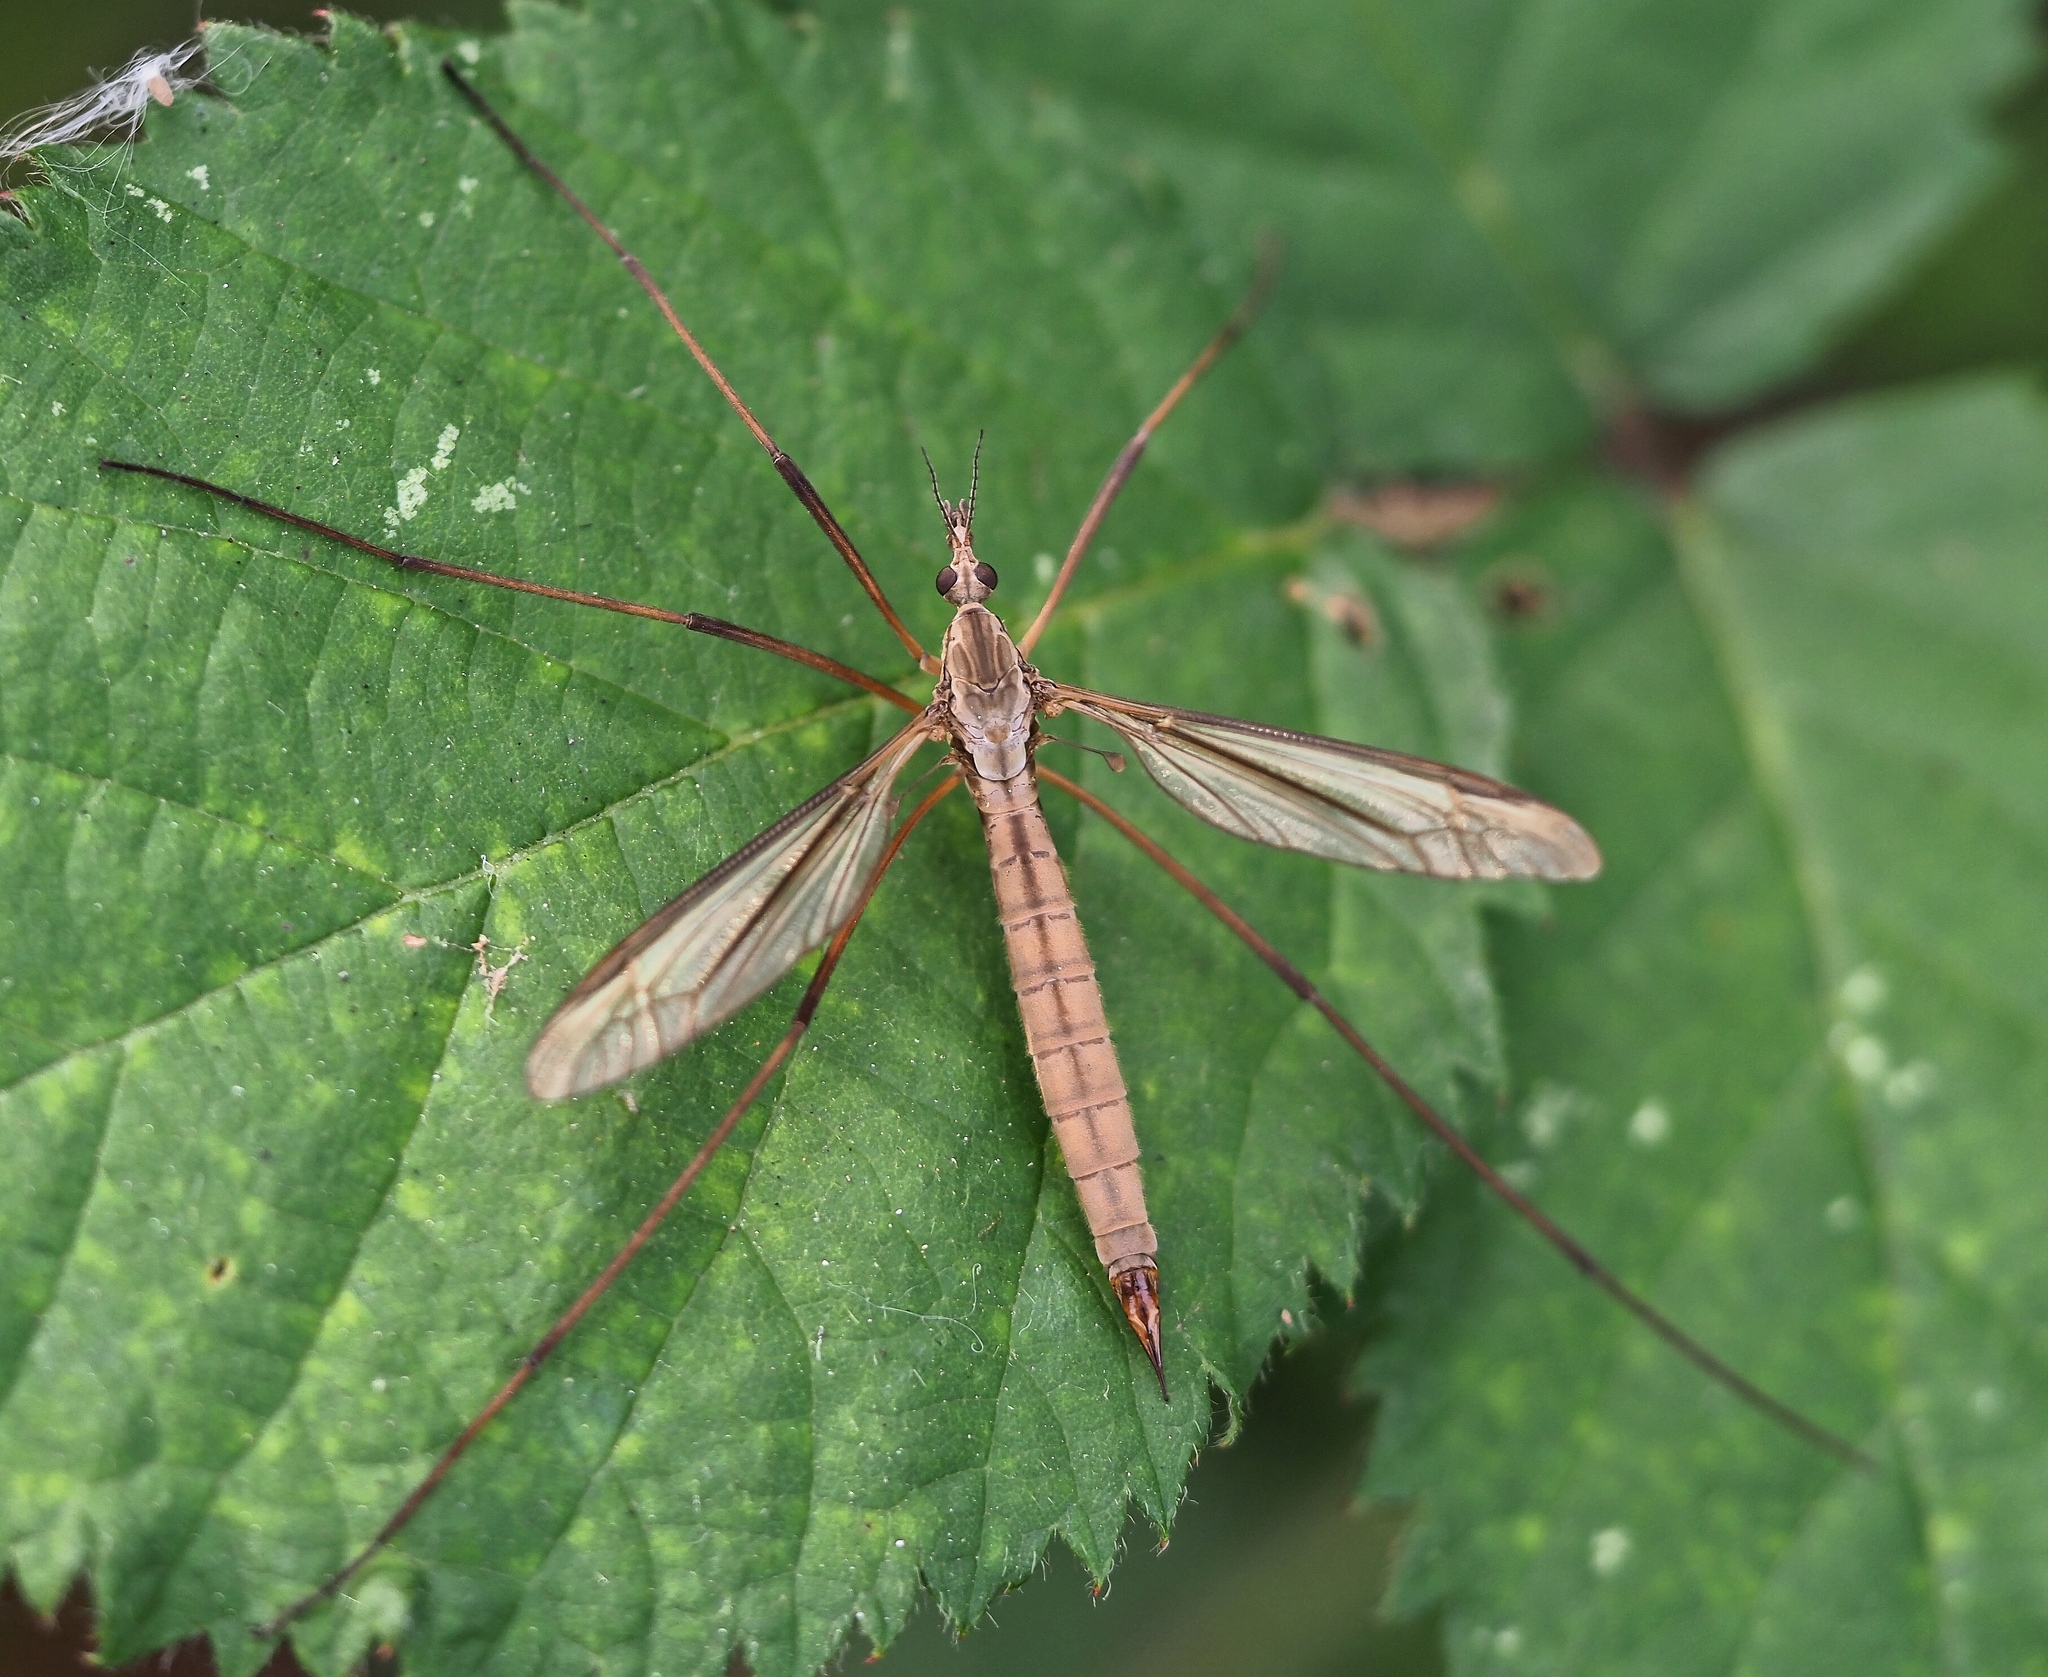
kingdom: Animalia
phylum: Arthropoda
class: Insecta
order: Diptera
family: Tipulidae
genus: Tipula
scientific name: Tipula paludosa
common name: European cranefly
